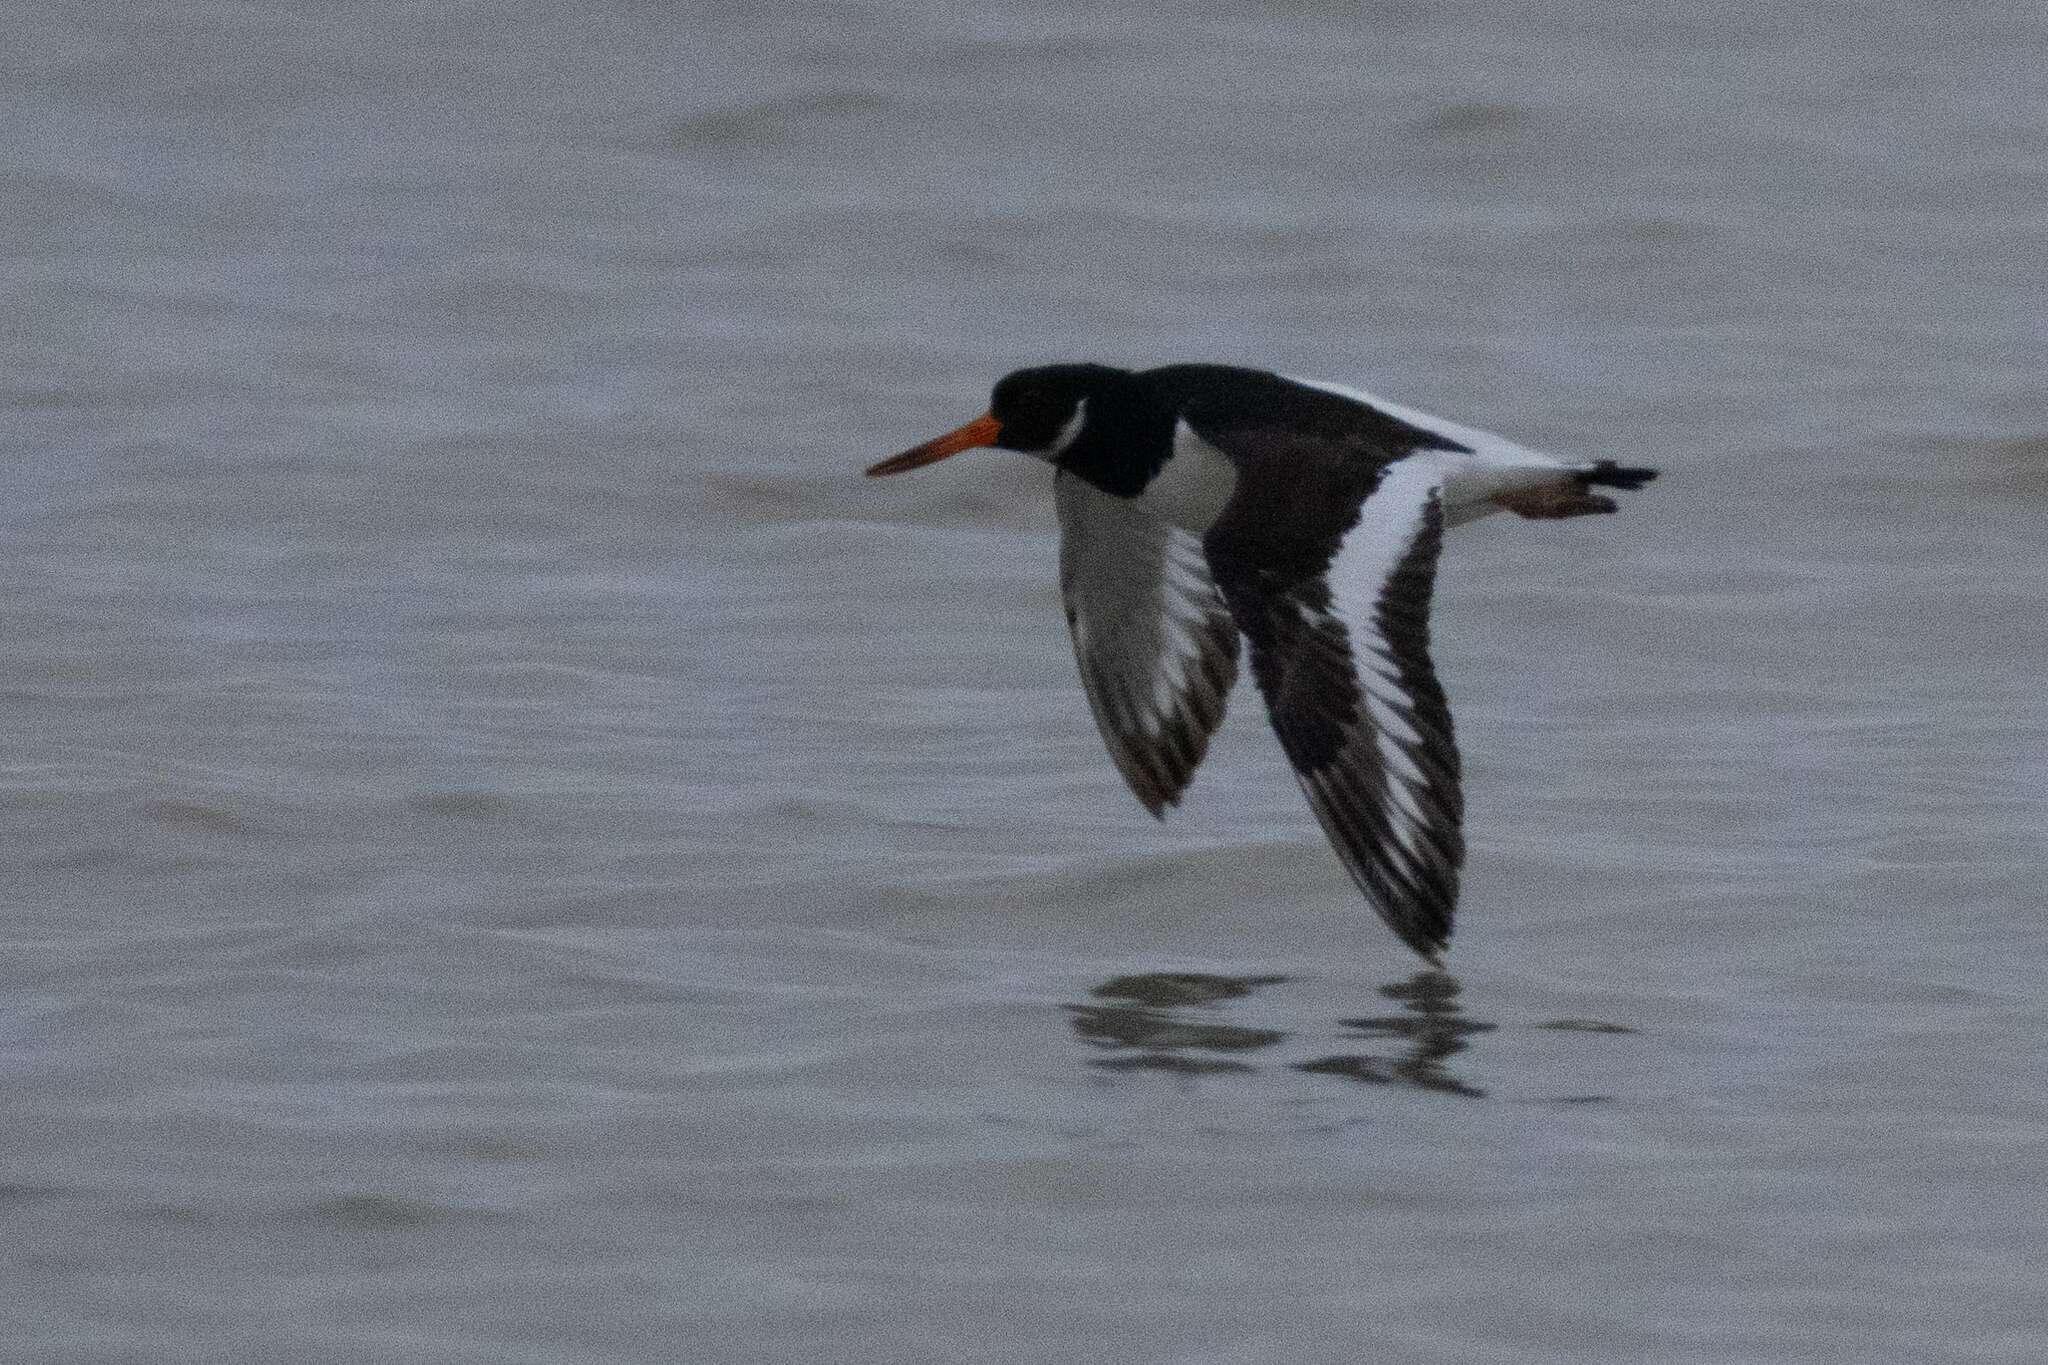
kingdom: Animalia
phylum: Chordata
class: Aves
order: Charadriiformes
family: Haematopodidae
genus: Haematopus
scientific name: Haematopus ostralegus
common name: Eurasian oystercatcher
